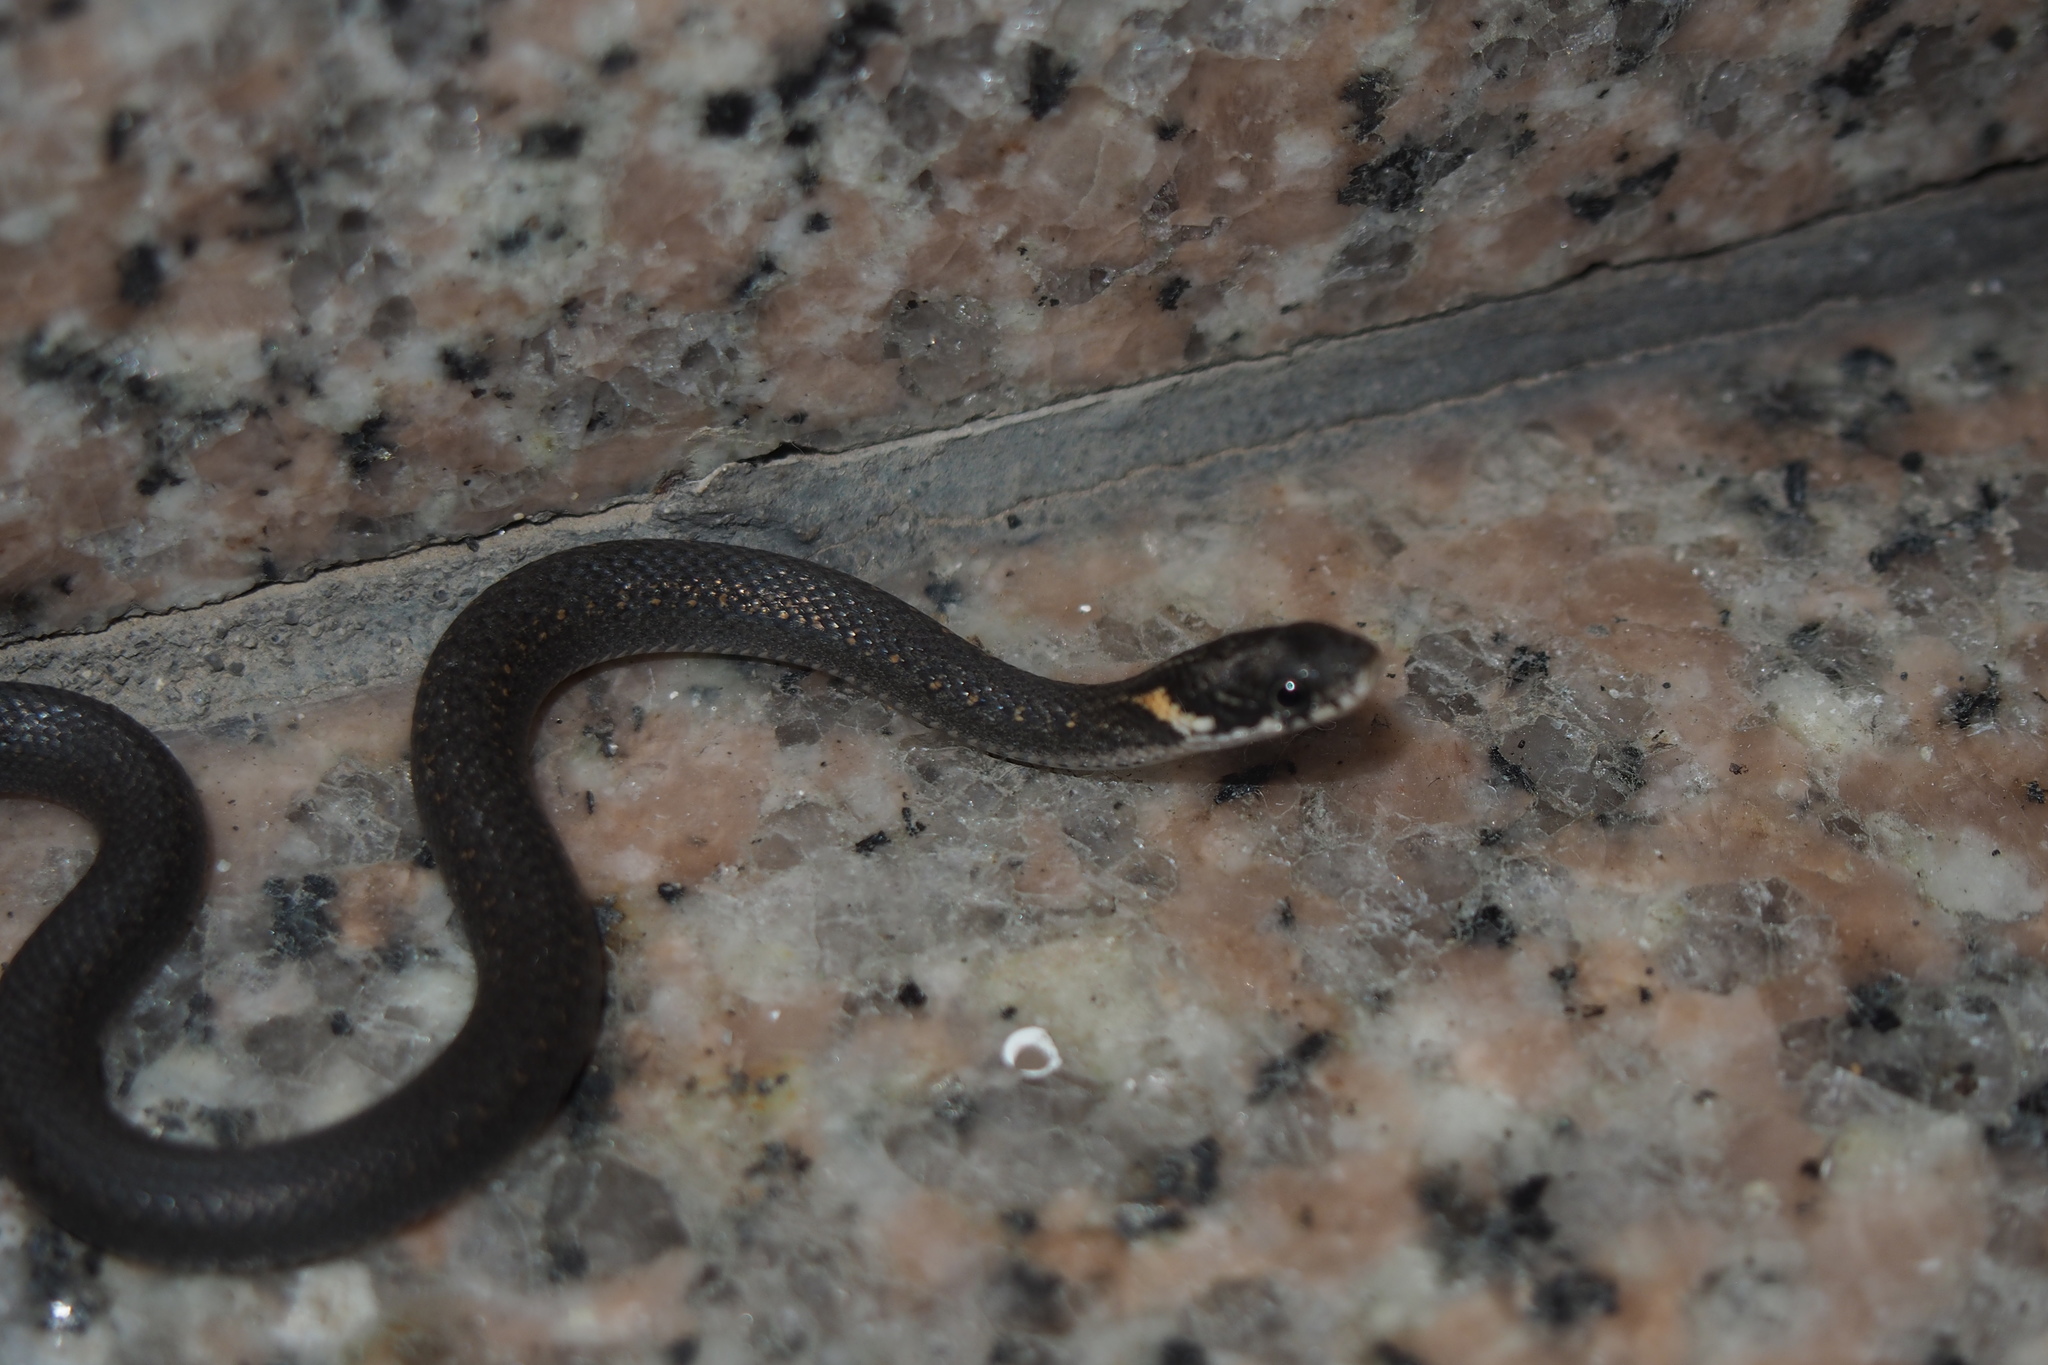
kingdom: Animalia
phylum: Chordata
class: Squamata
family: Colubridae
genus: Hebius
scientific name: Hebius vibakari
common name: Japanese keelback
